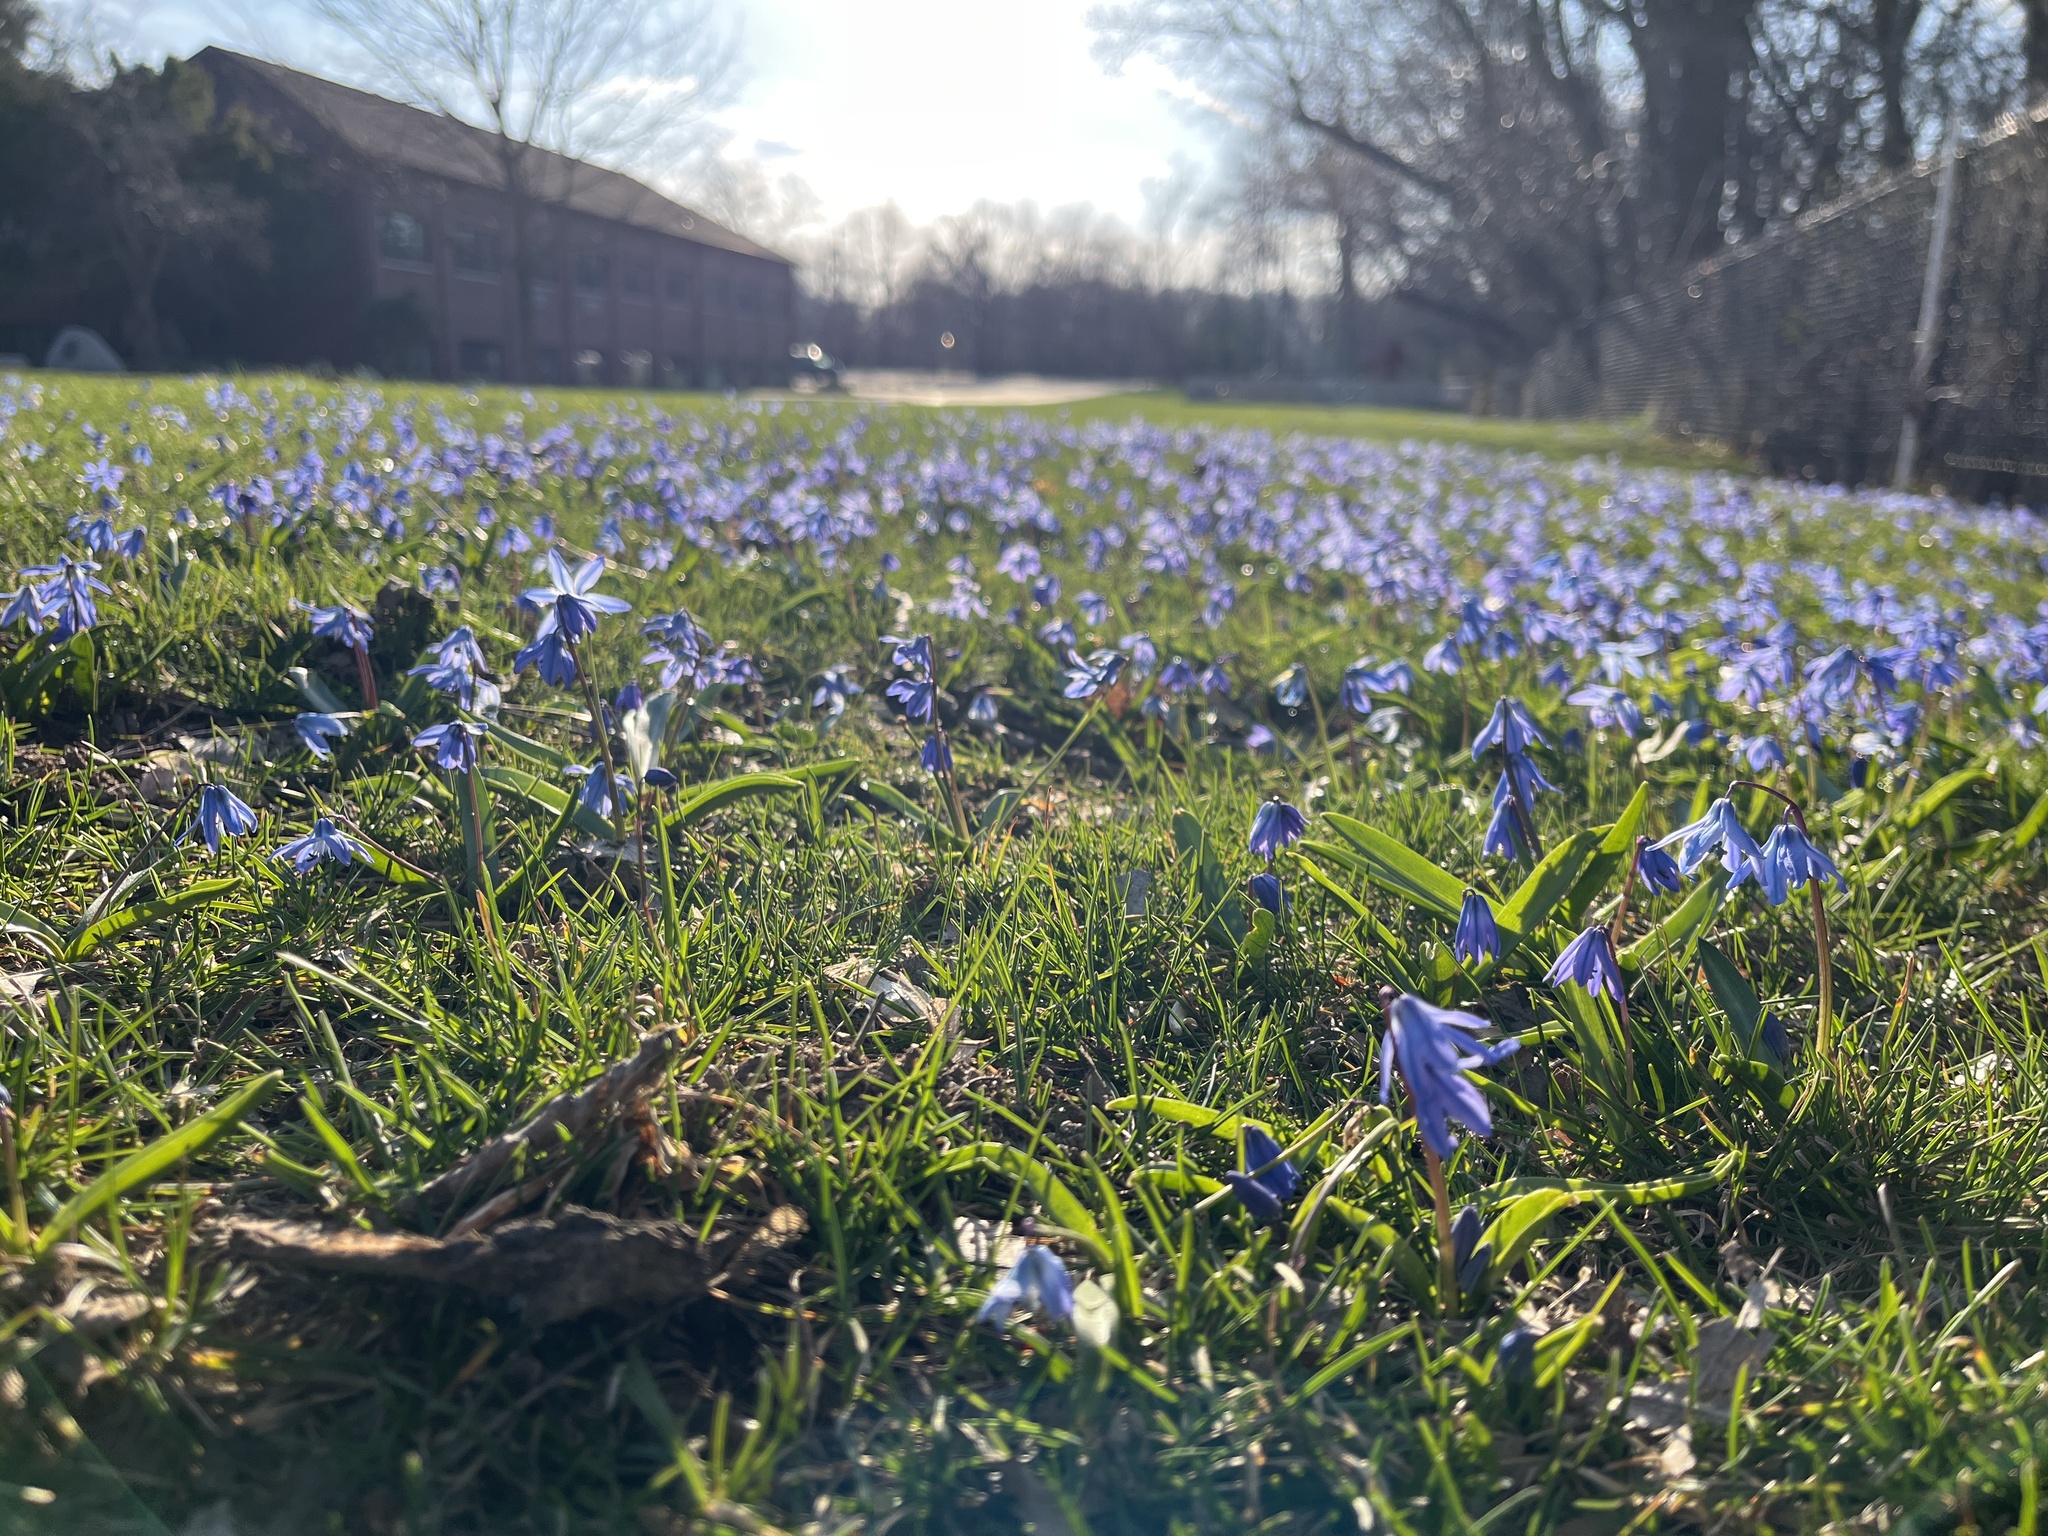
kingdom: Plantae
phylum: Tracheophyta
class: Liliopsida
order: Asparagales
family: Asparagaceae
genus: Scilla
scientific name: Scilla siberica
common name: Siberian squill
